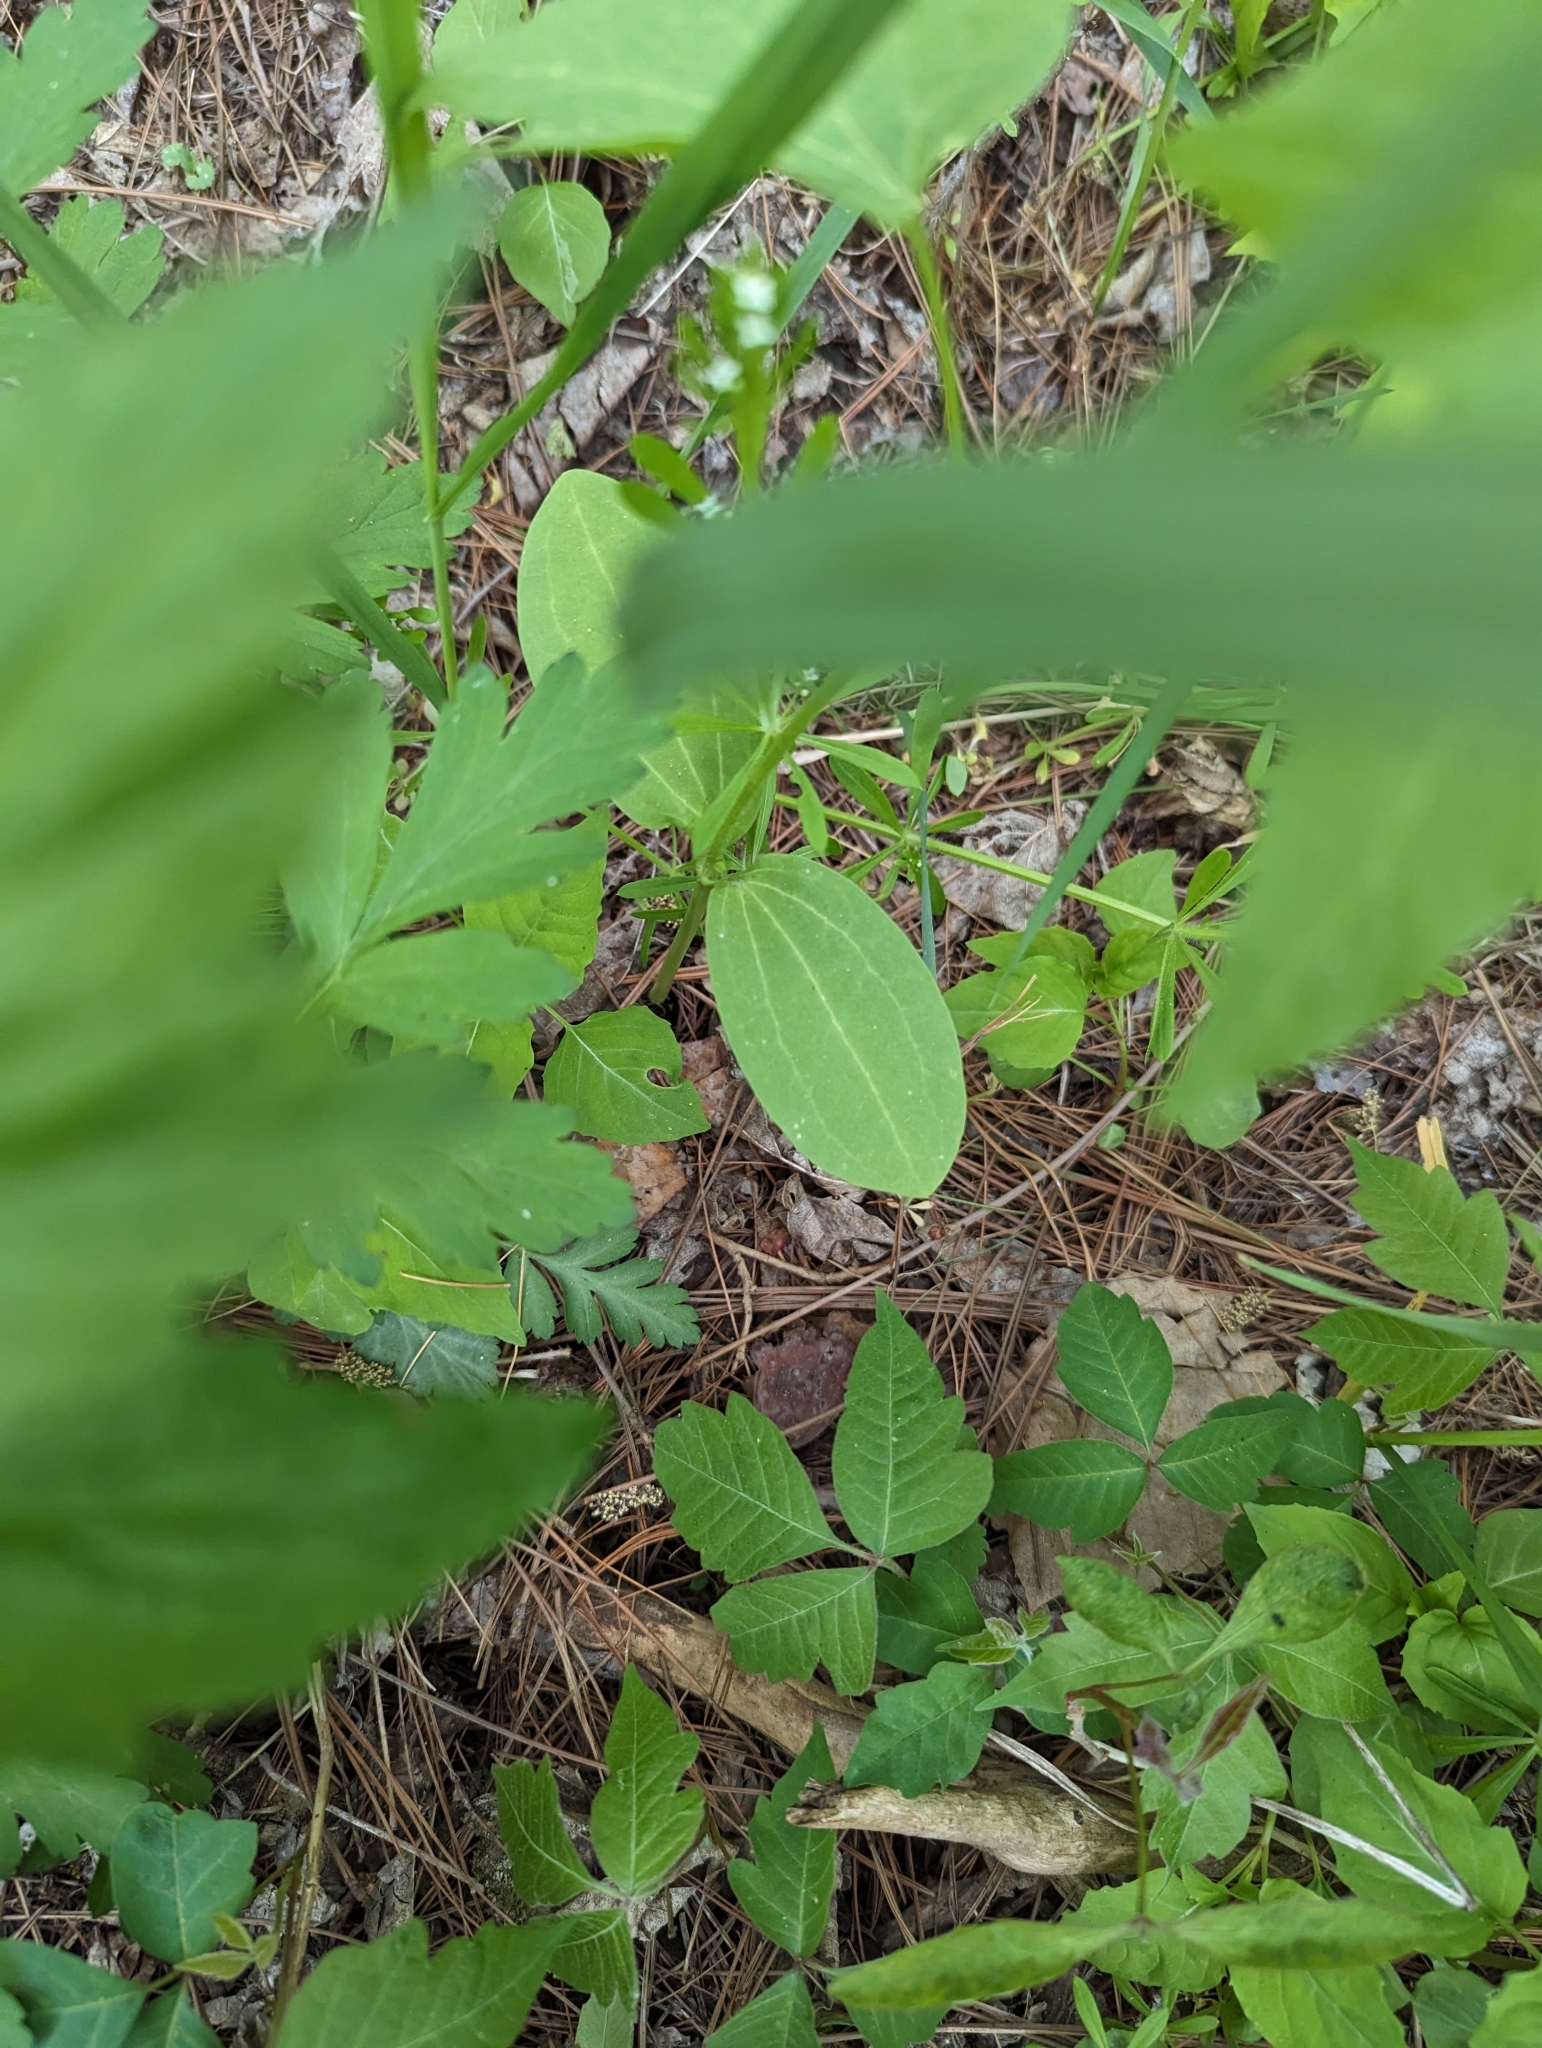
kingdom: Plantae
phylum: Tracheophyta
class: Magnoliopsida
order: Cucurbitales
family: Cucurbitaceae
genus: Echinocystis
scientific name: Echinocystis lobata
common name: Wild cucumber
